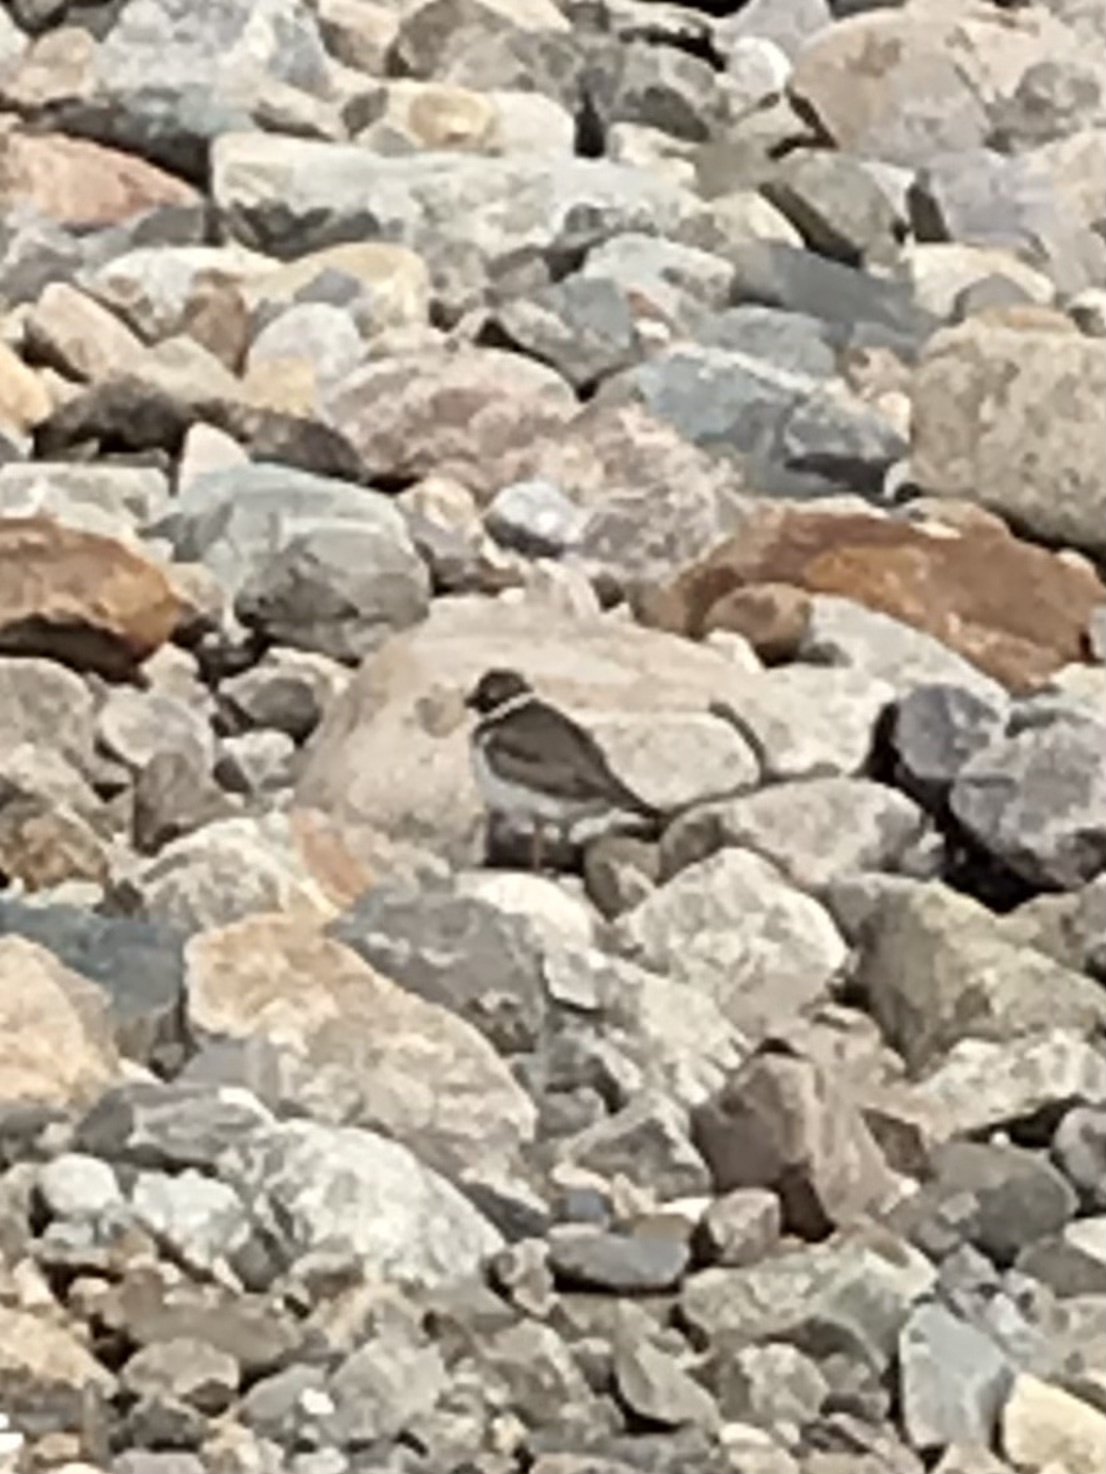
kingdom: Animalia
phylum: Chordata
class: Aves
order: Charadriiformes
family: Charadriidae
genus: Charadrius
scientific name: Charadrius semipalmatus
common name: Semipalmated plover
